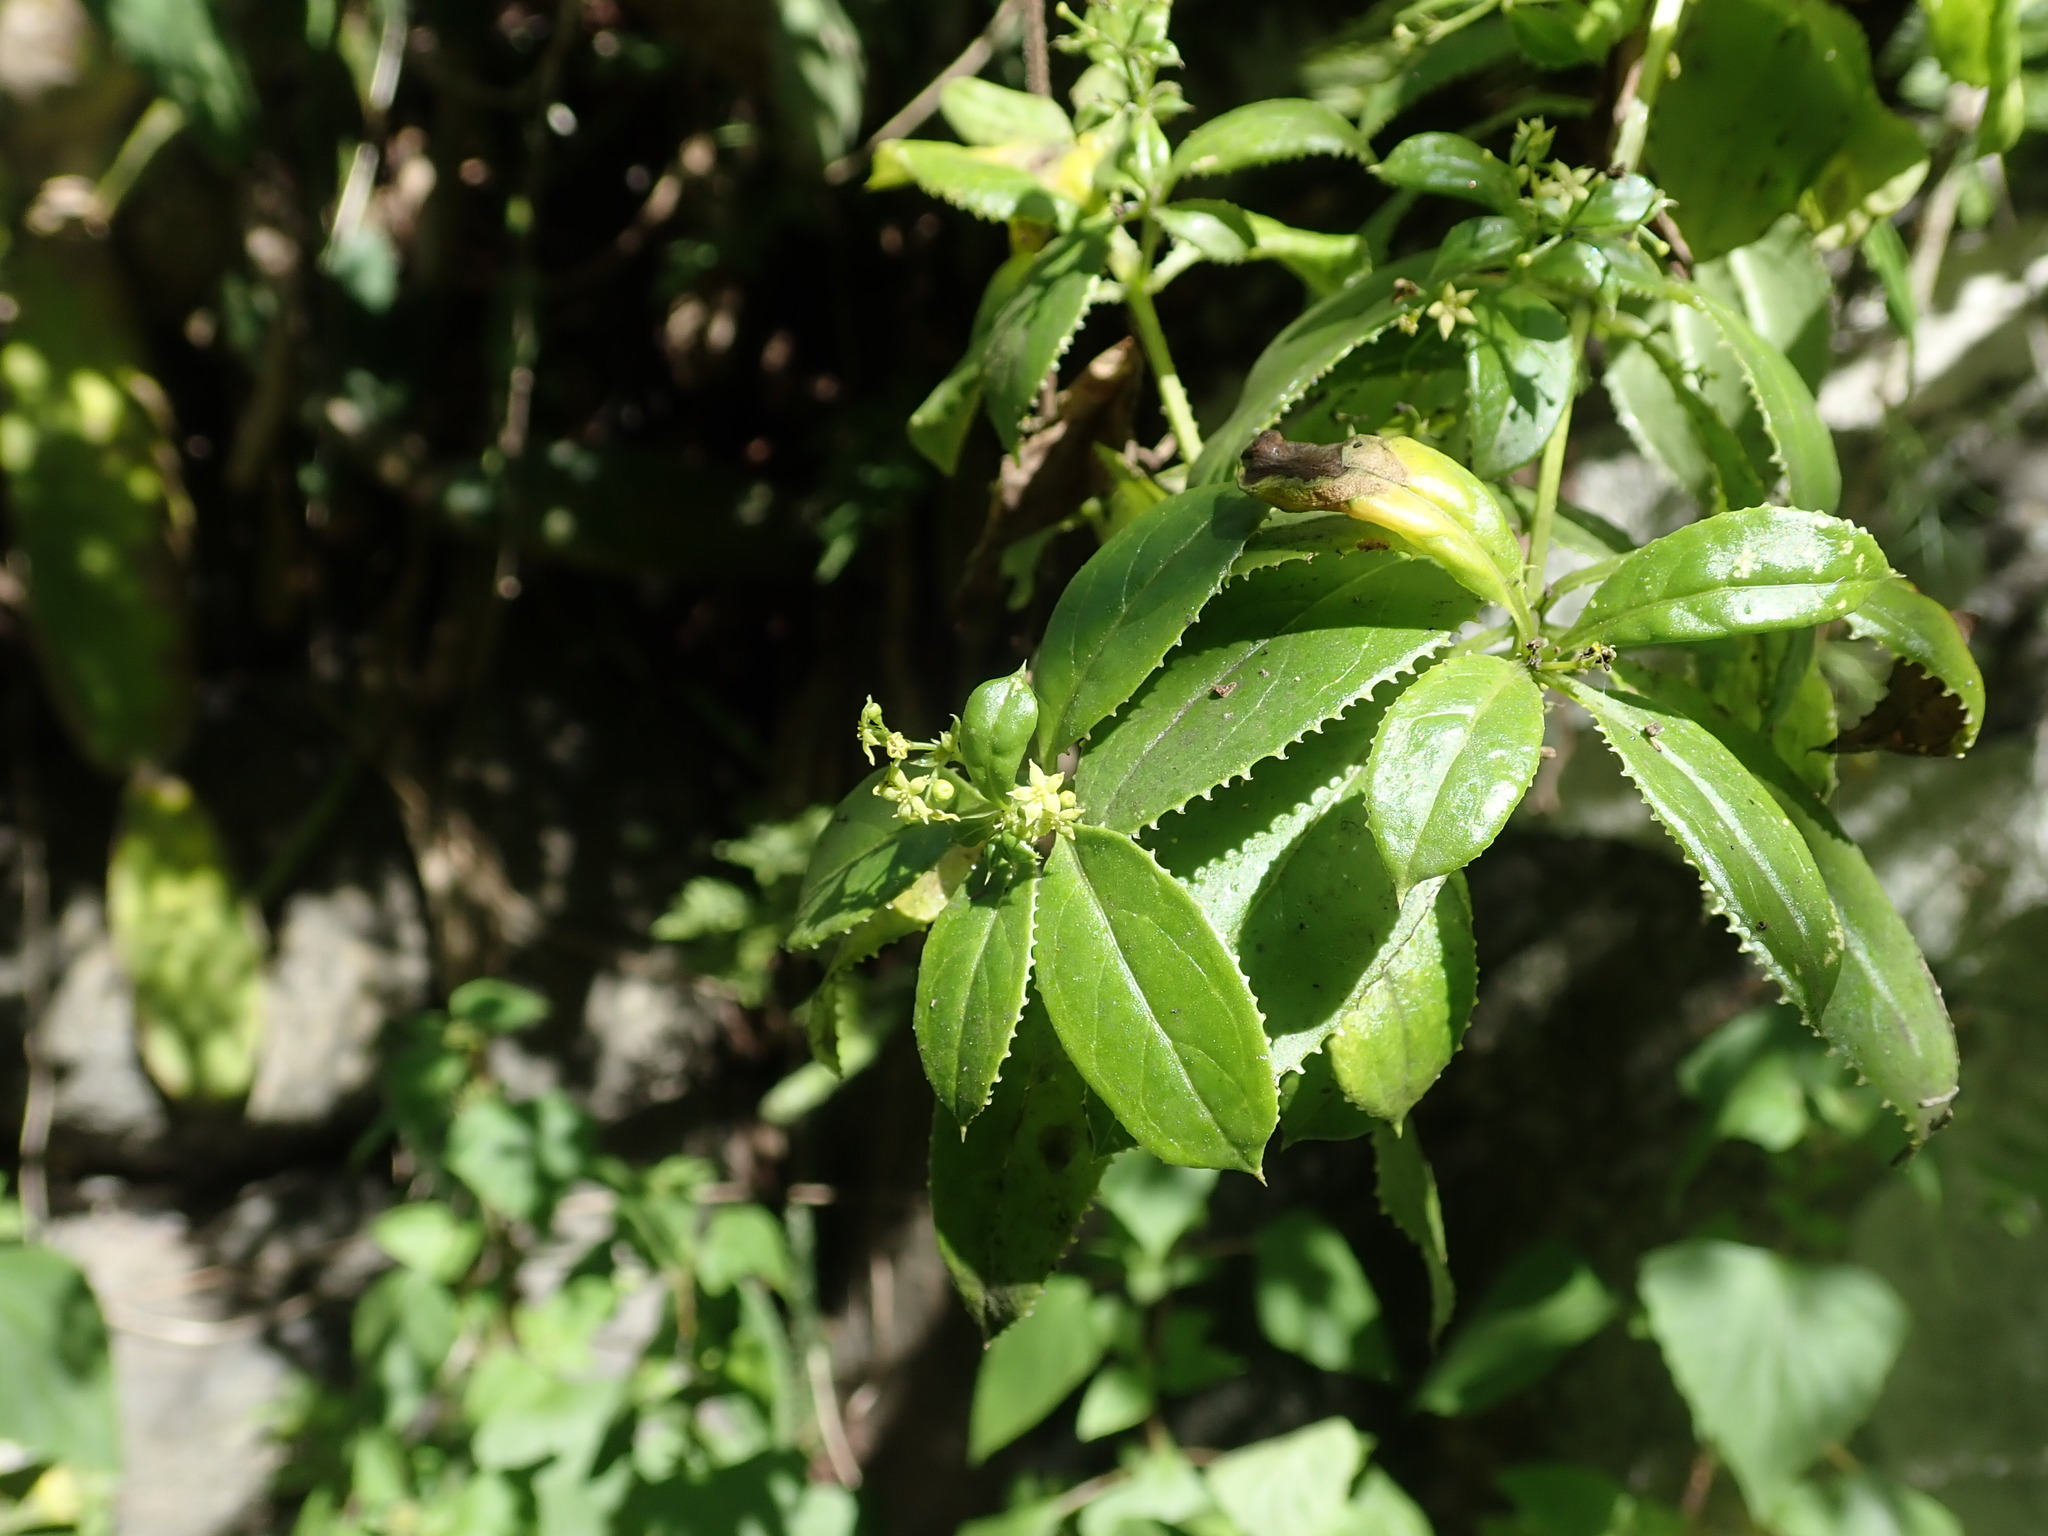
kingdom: Plantae
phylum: Tracheophyta
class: Magnoliopsida
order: Gentianales
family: Rubiaceae
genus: Rubia
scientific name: Rubia fruticosa
